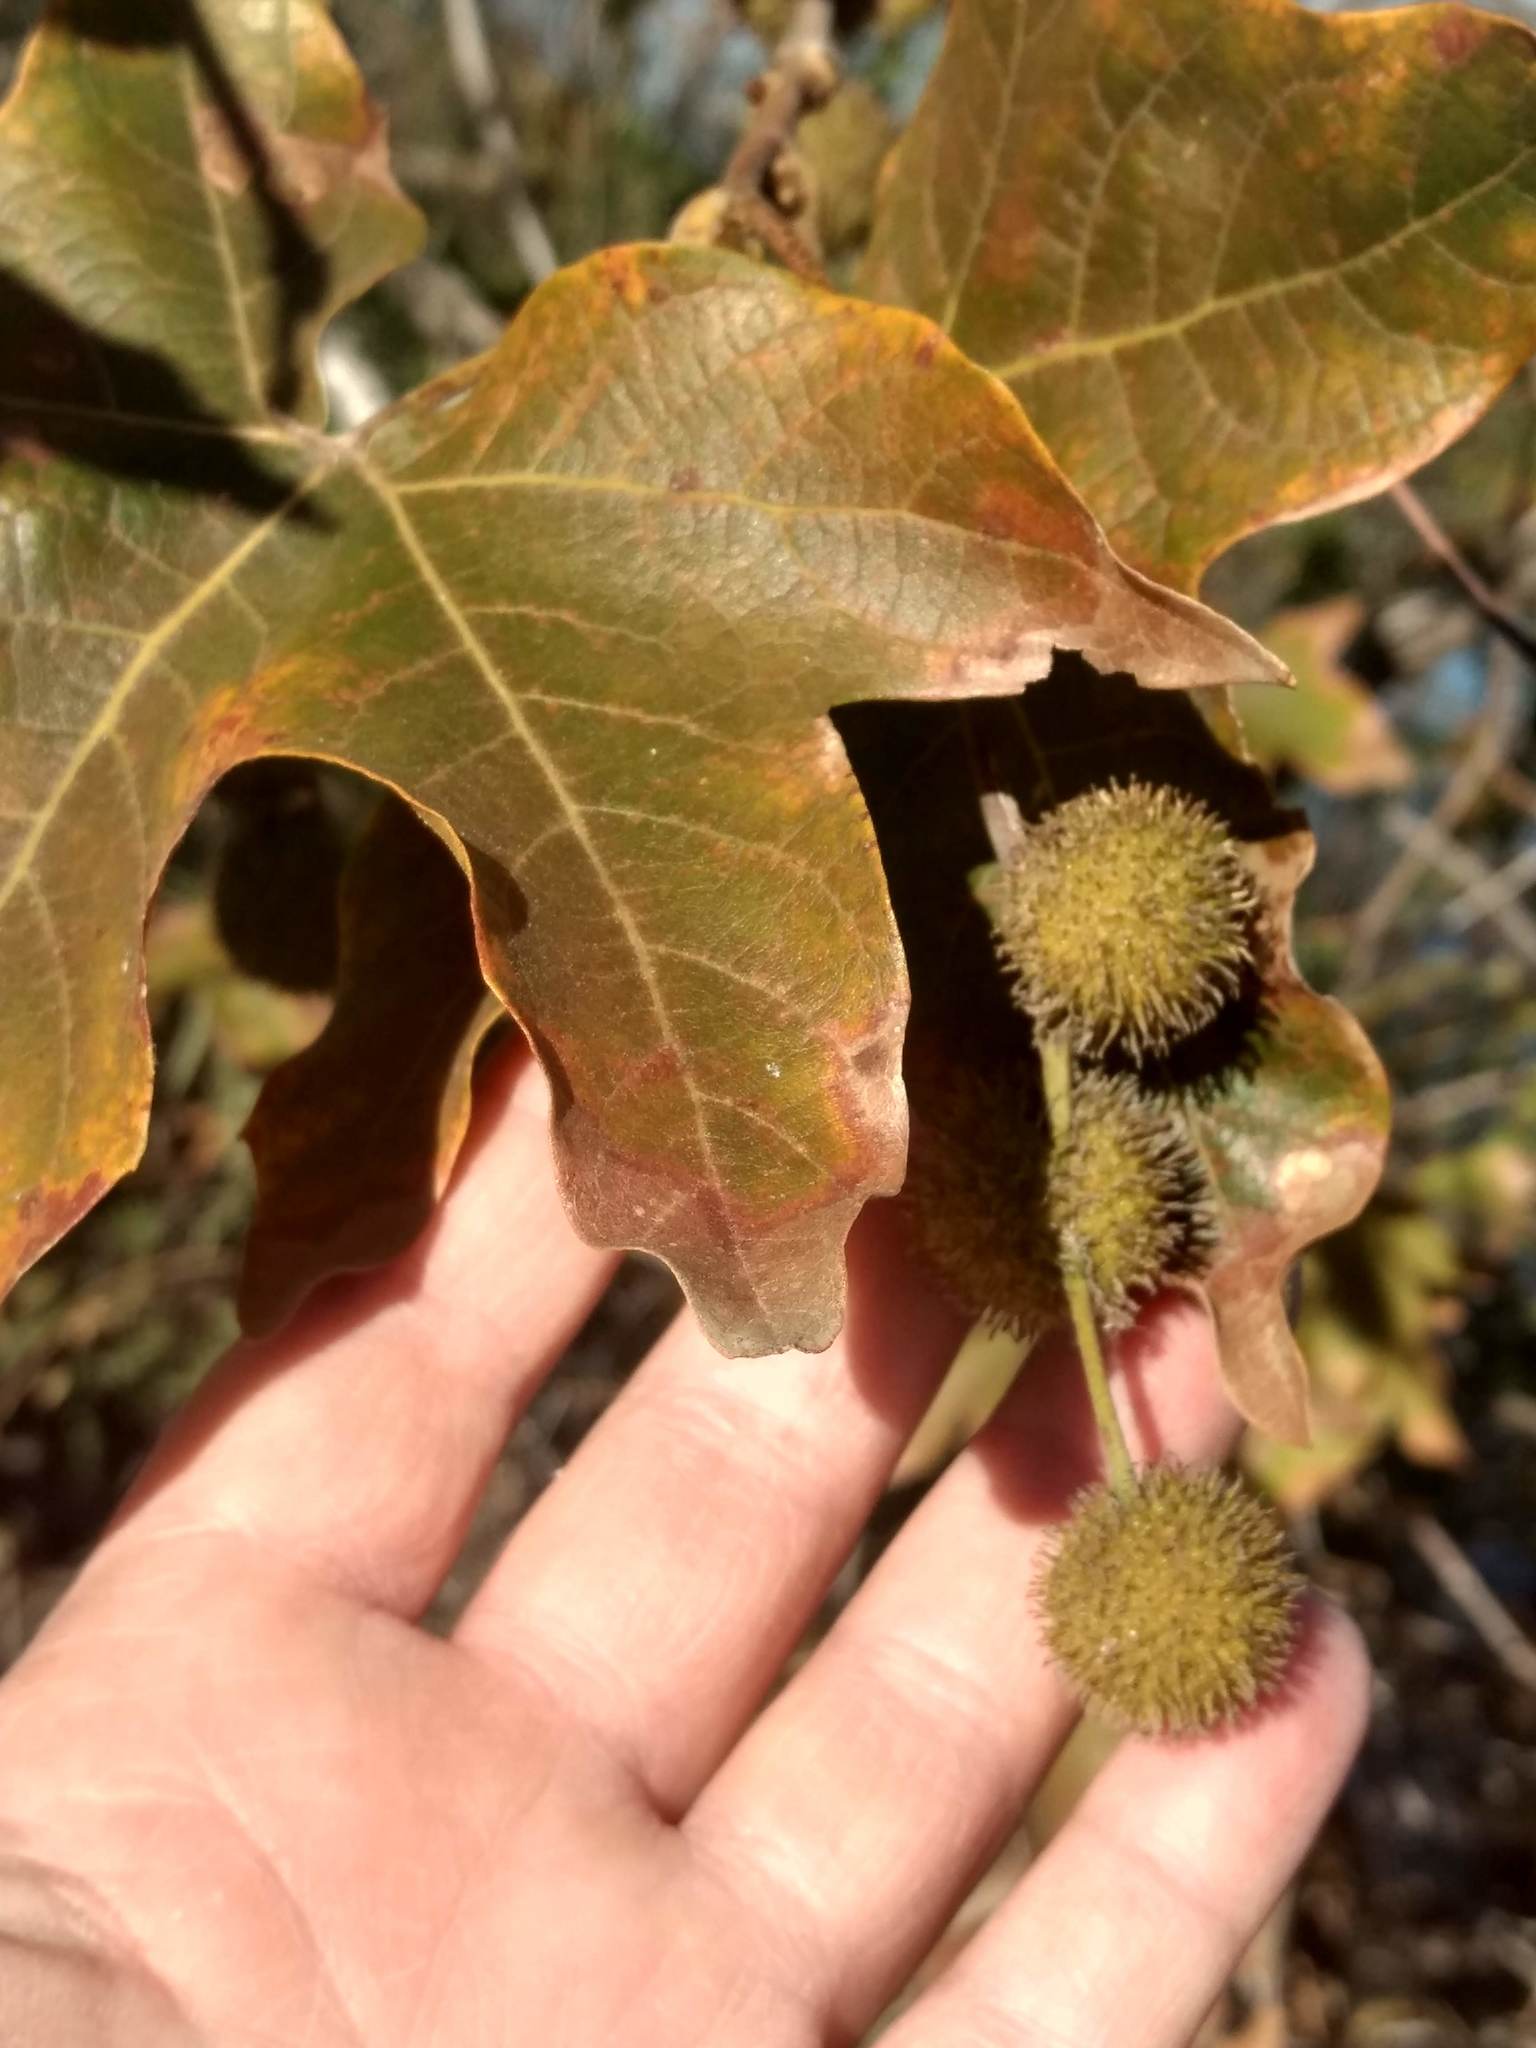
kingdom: Plantae
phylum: Tracheophyta
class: Magnoliopsida
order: Proteales
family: Platanaceae
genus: Platanus
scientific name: Platanus racemosa
